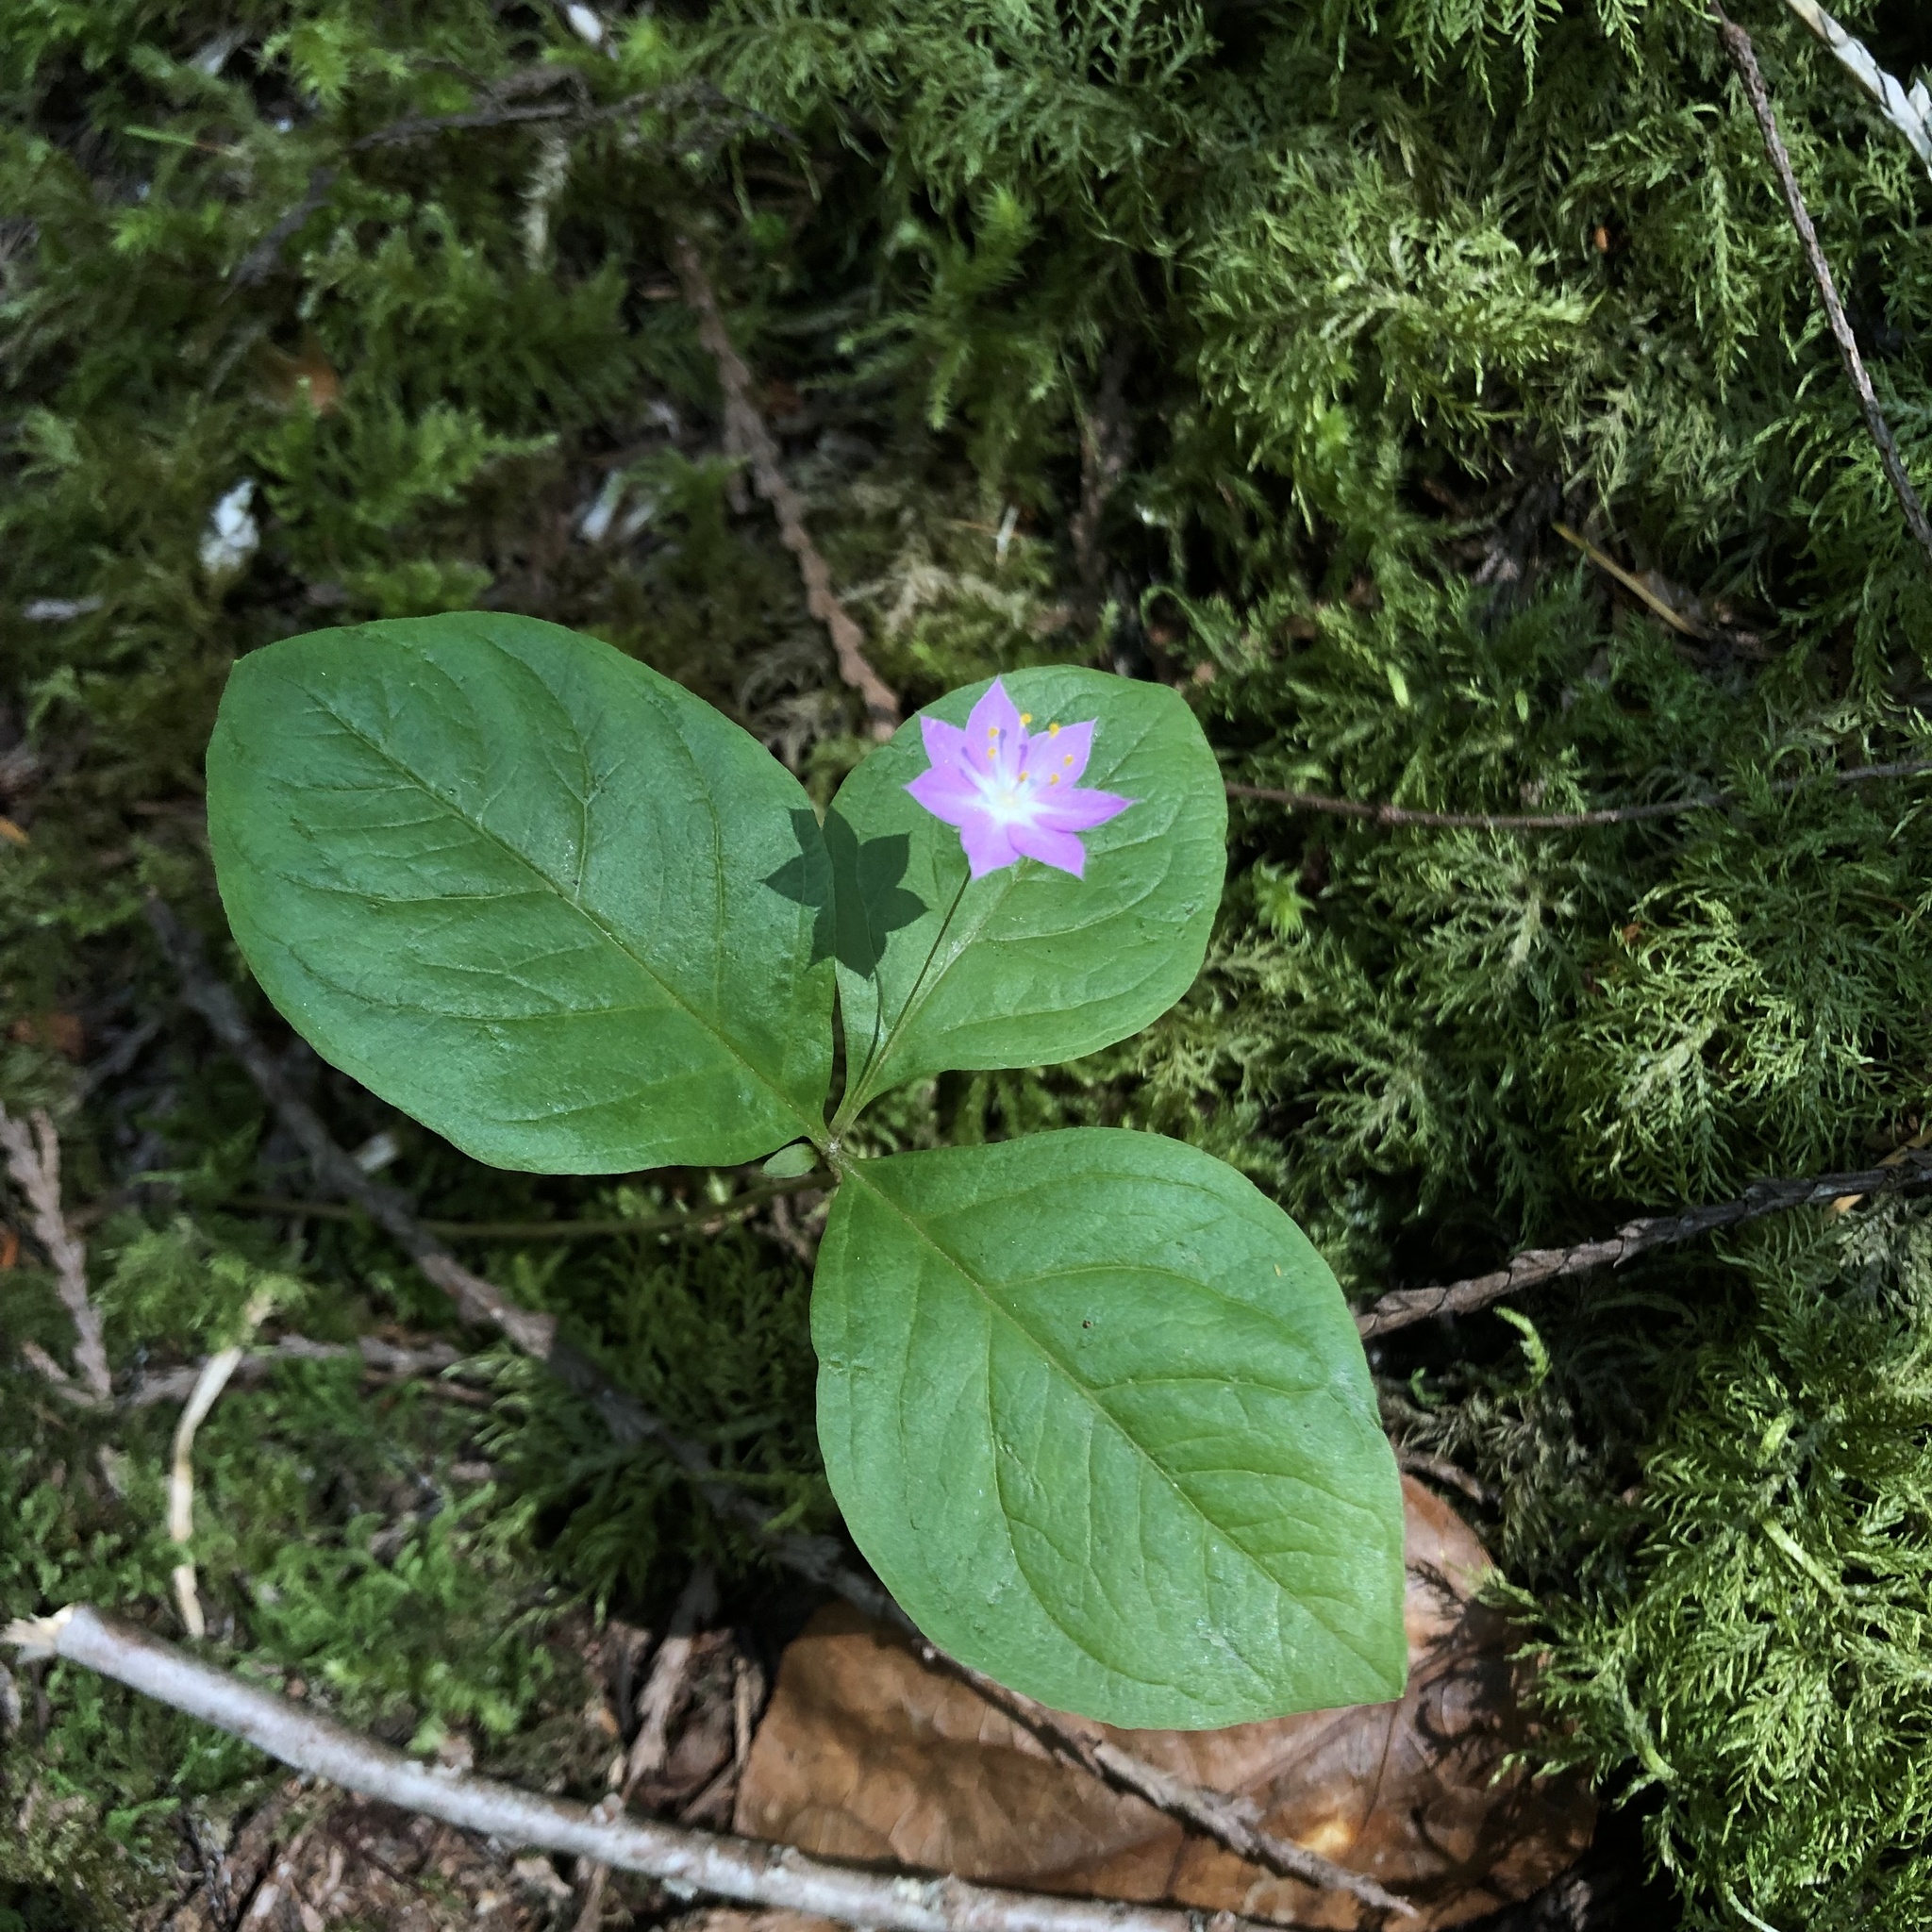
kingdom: Plantae
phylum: Tracheophyta
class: Magnoliopsida
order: Ericales
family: Primulaceae
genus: Lysimachia
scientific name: Lysimachia latifolia
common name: Pacific starflower
